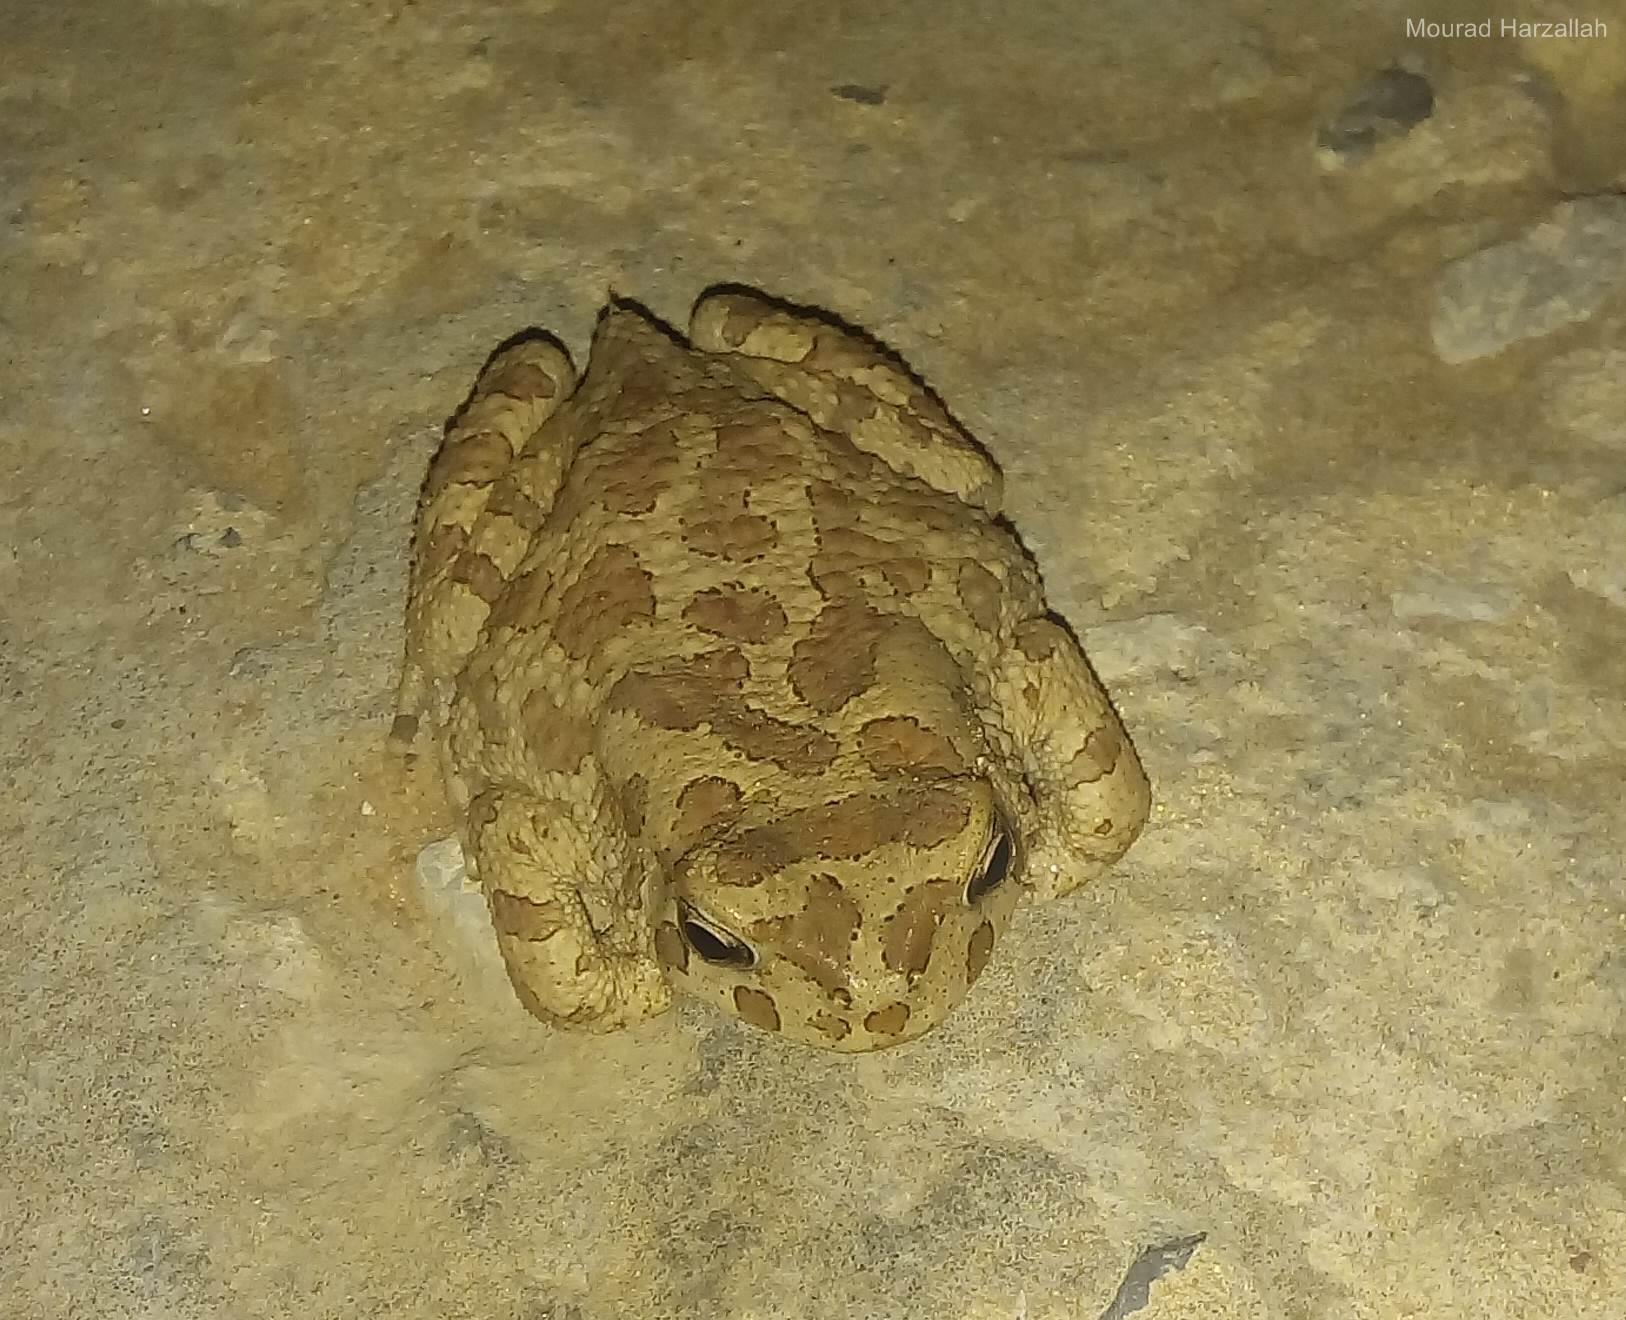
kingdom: Animalia
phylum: Chordata
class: Amphibia
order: Anura
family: Bufonidae
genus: Bufotes
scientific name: Bufotes boulengeri
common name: African green toad
